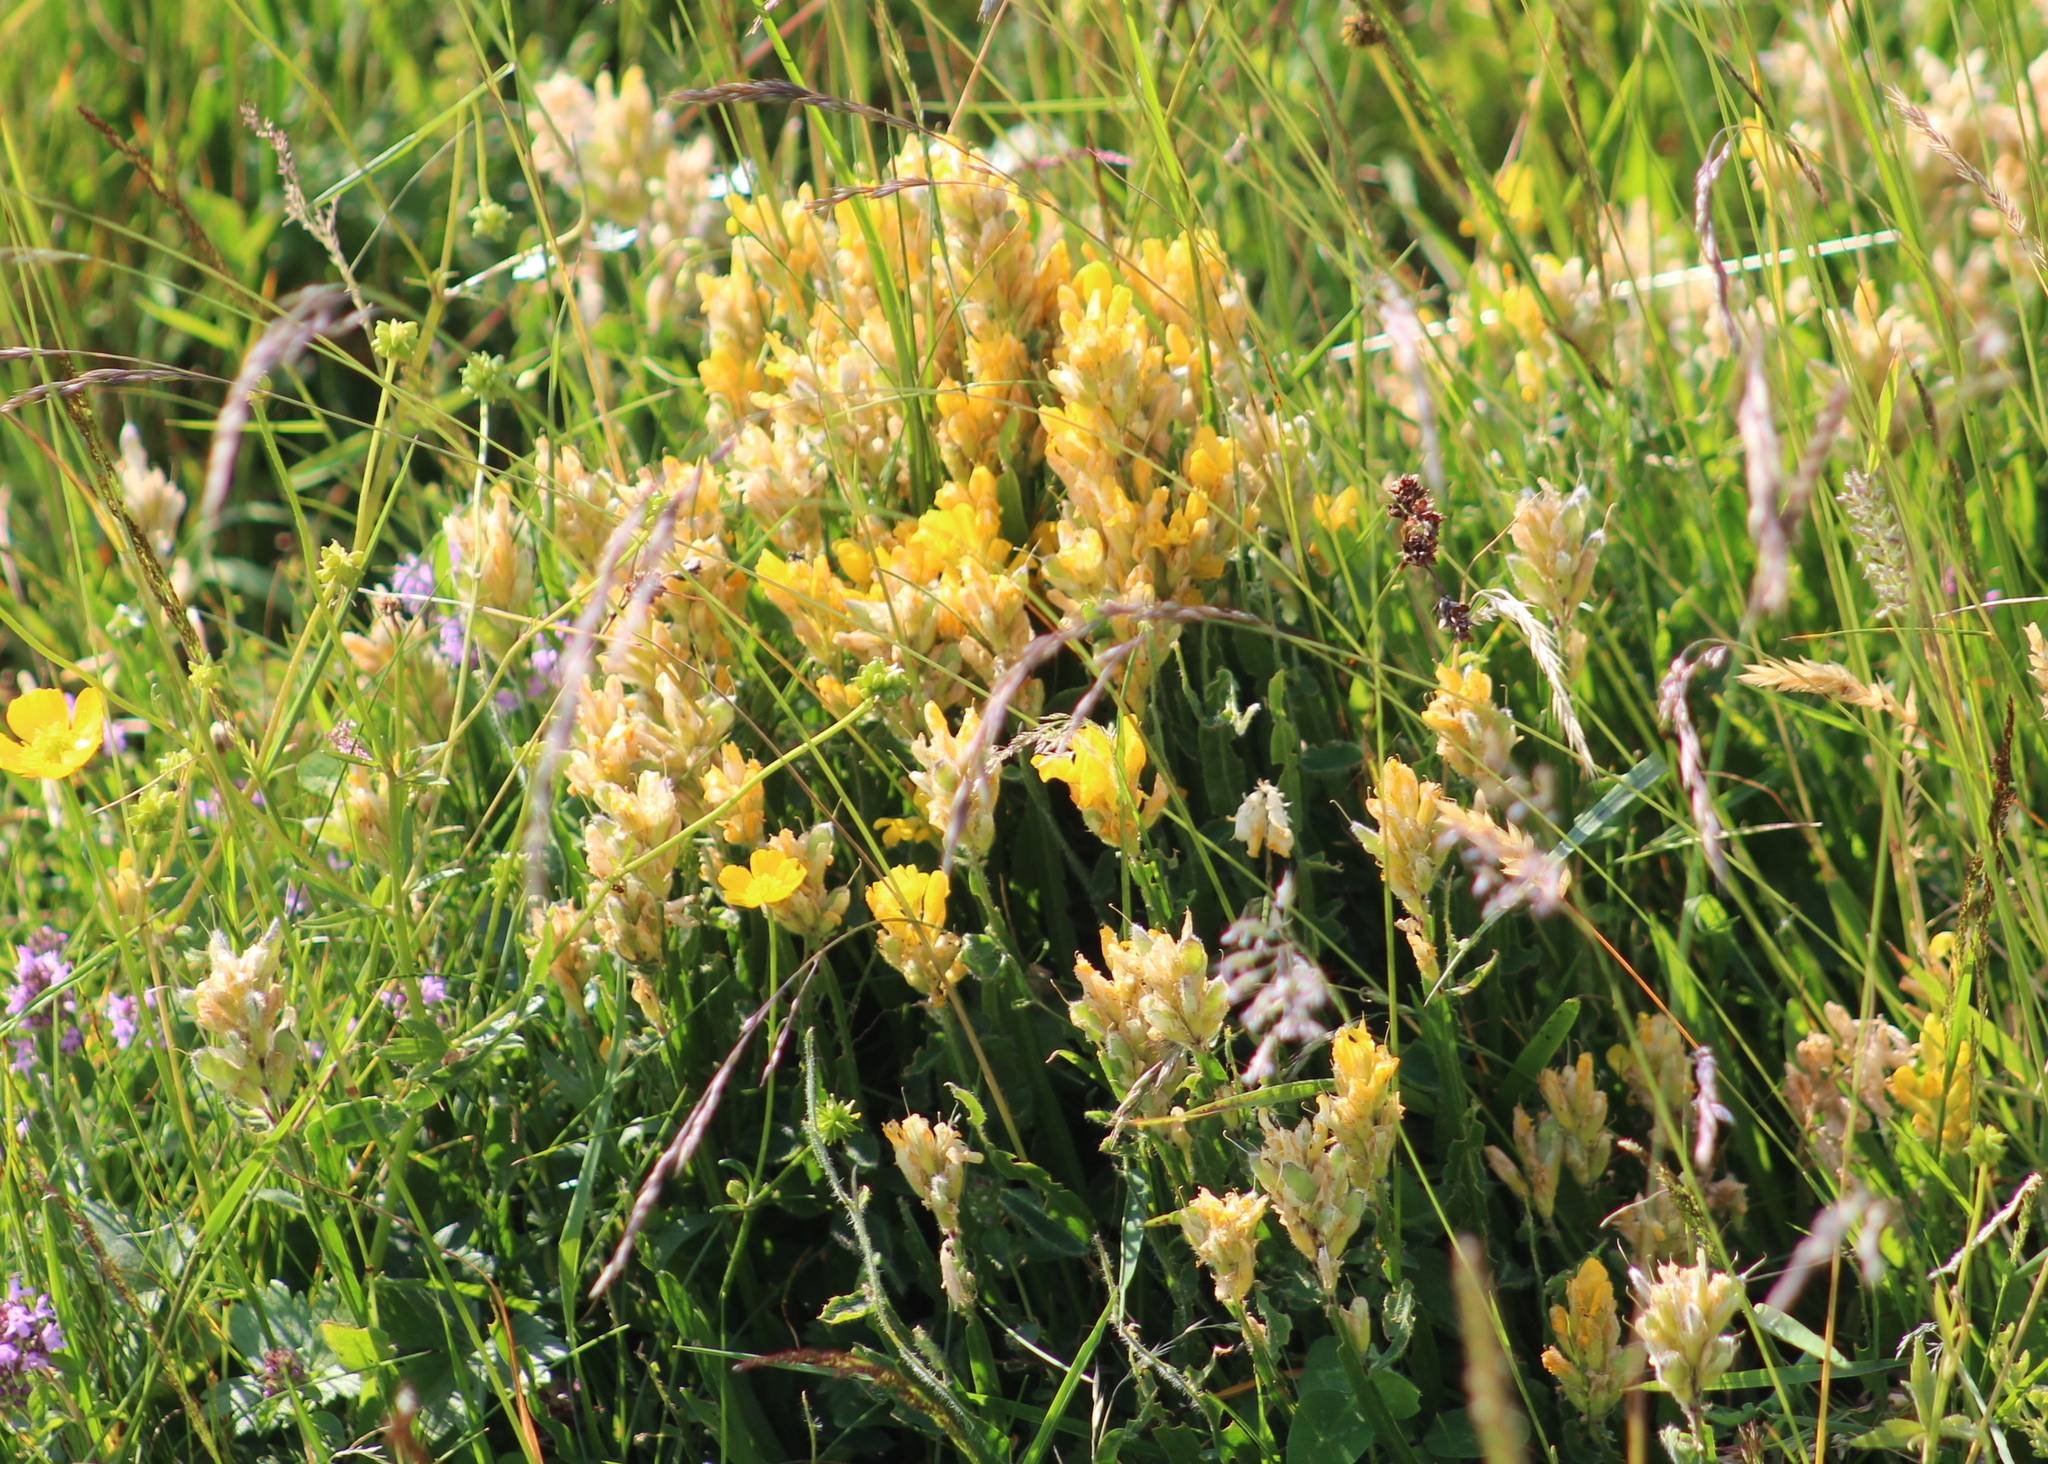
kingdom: Plantae
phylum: Tracheophyta
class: Magnoliopsida
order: Fabales
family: Fabaceae
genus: Genista
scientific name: Genista sagittalis
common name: Winged greenweed
